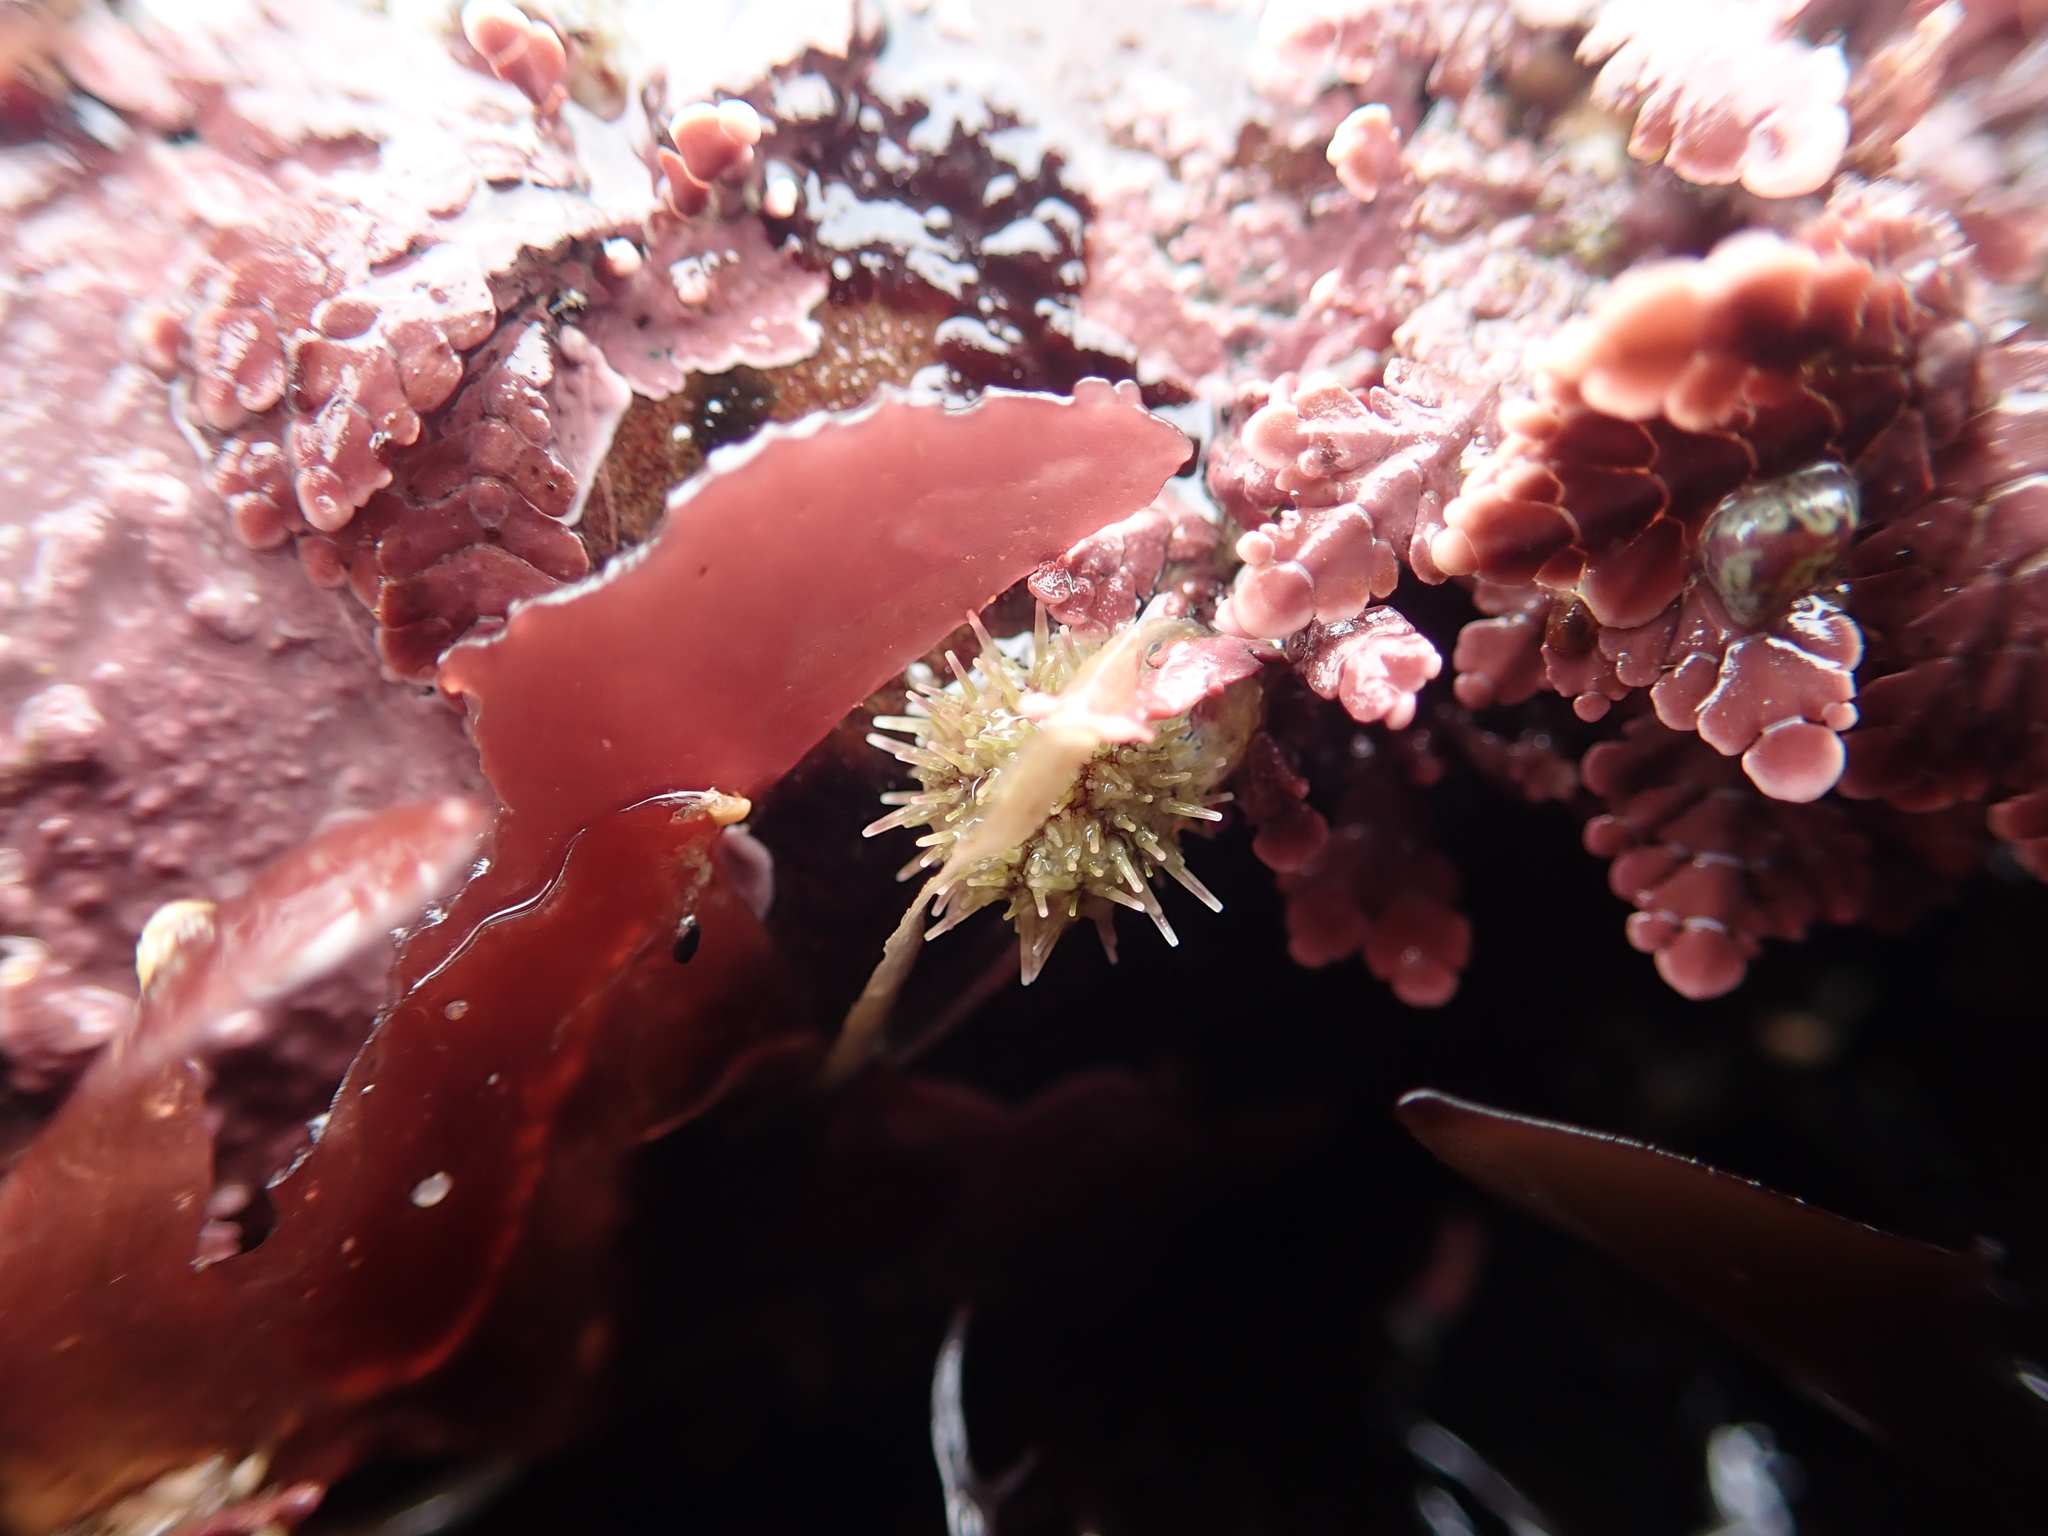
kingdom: Animalia
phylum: Echinodermata
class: Echinoidea
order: Camarodonta
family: Strongylocentrotidae
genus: Strongylocentrotus
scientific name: Strongylocentrotus purpuratus
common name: Purple sea urchin
